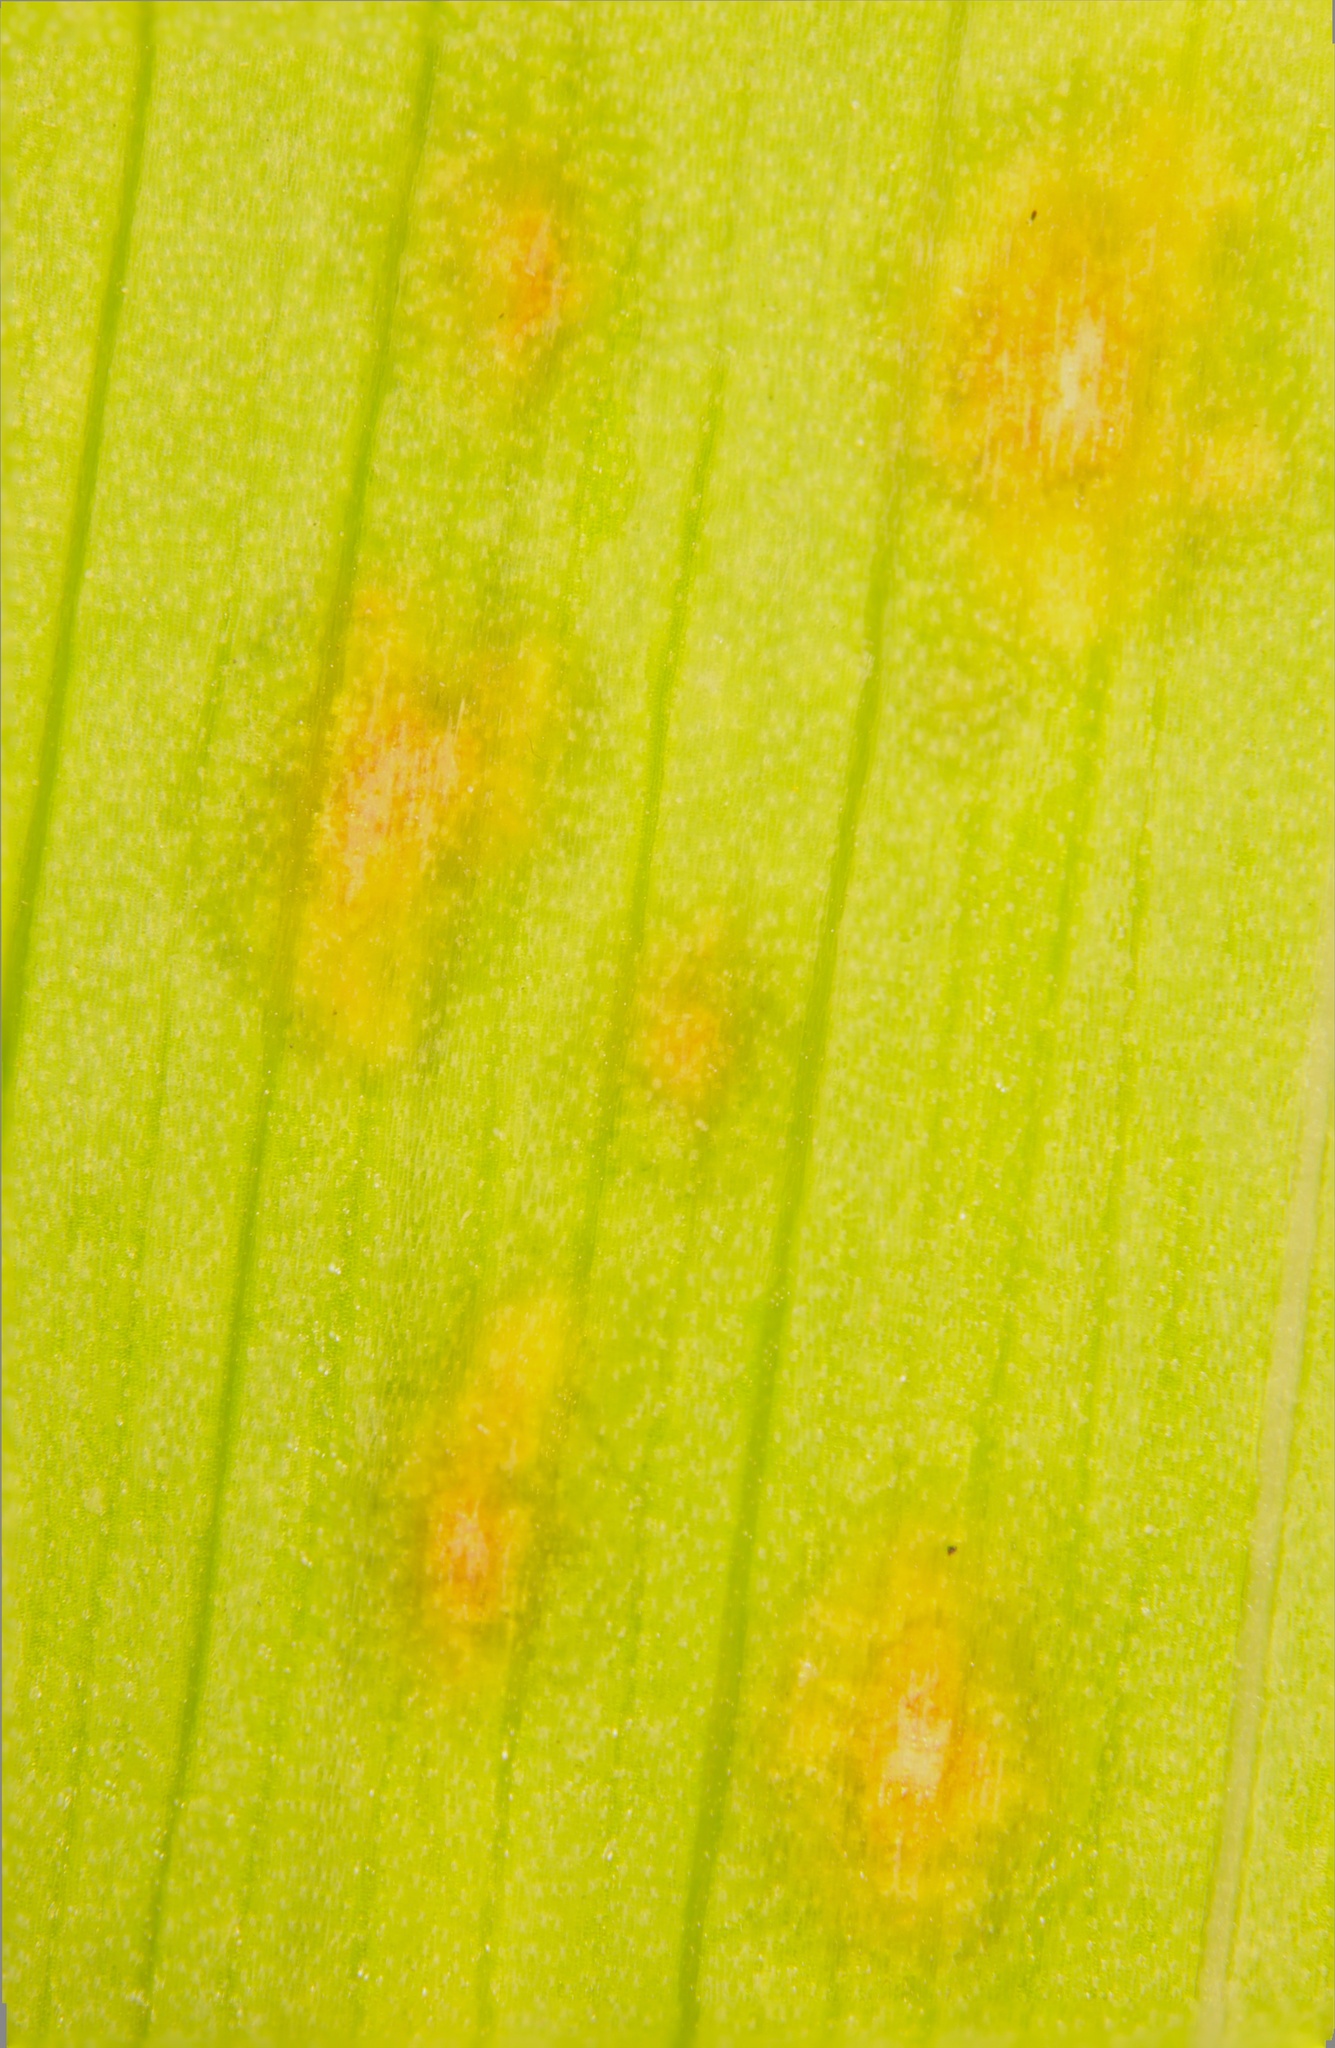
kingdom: Fungi
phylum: Ascomycota
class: Dothideomycetes
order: Capnodiales
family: Cladosporiaceae
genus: Cladosporium
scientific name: Cladosporium iridis
